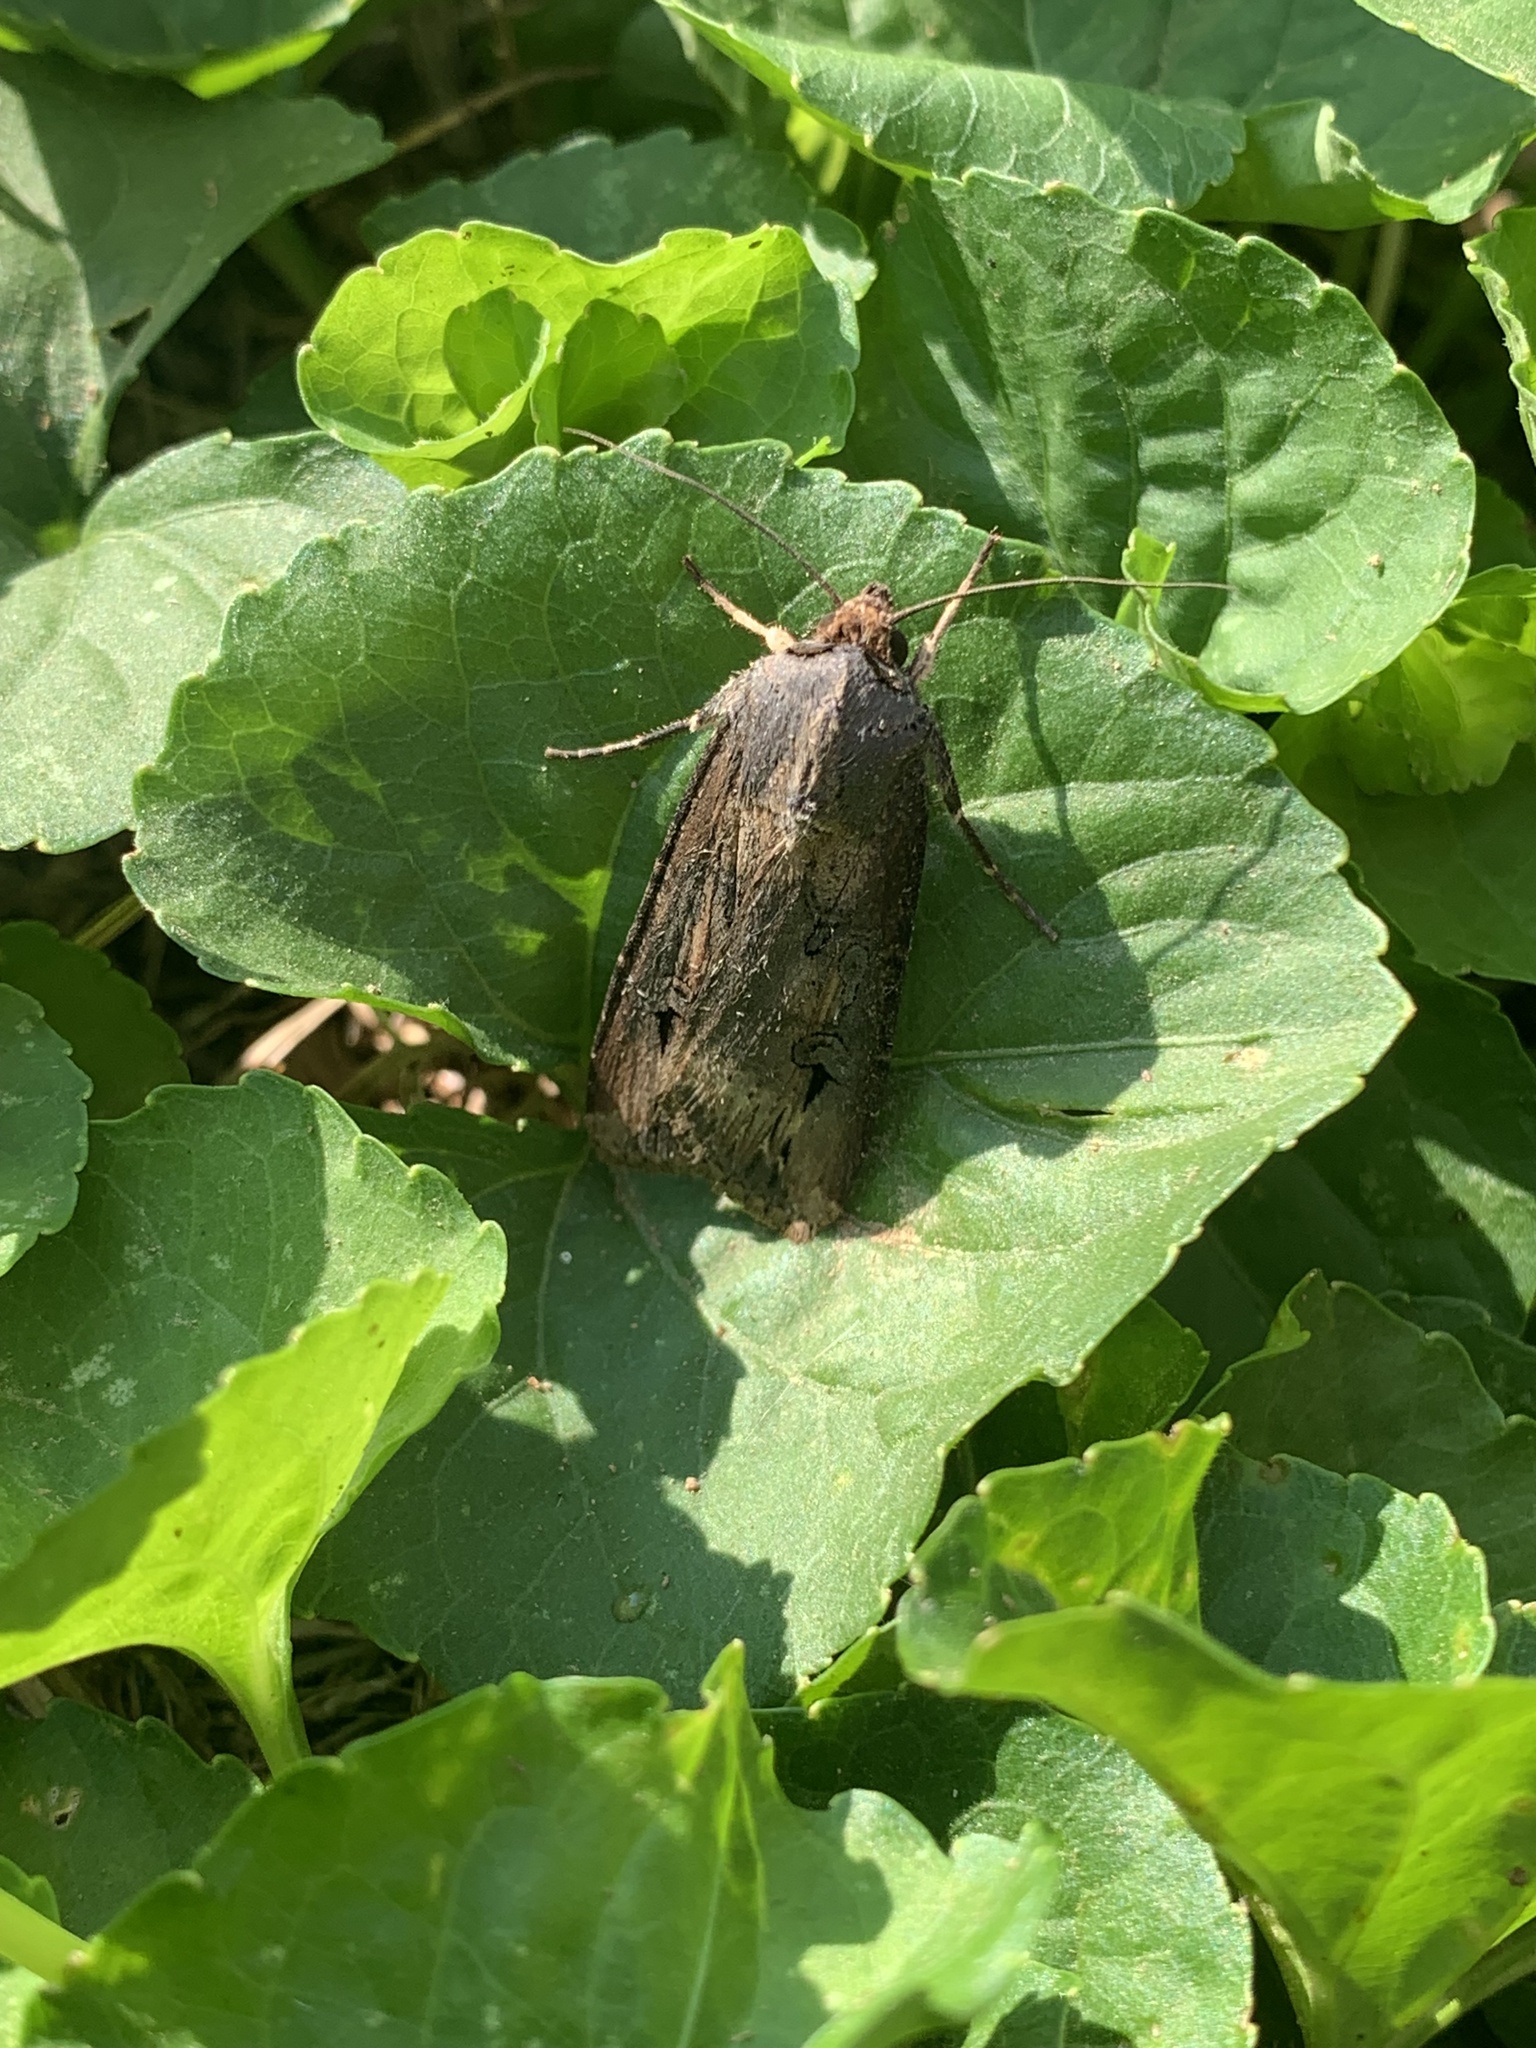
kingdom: Animalia
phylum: Arthropoda
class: Insecta
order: Lepidoptera
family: Noctuidae
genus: Agrotis
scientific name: Agrotis ipsilon
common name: Dark sword-grass
